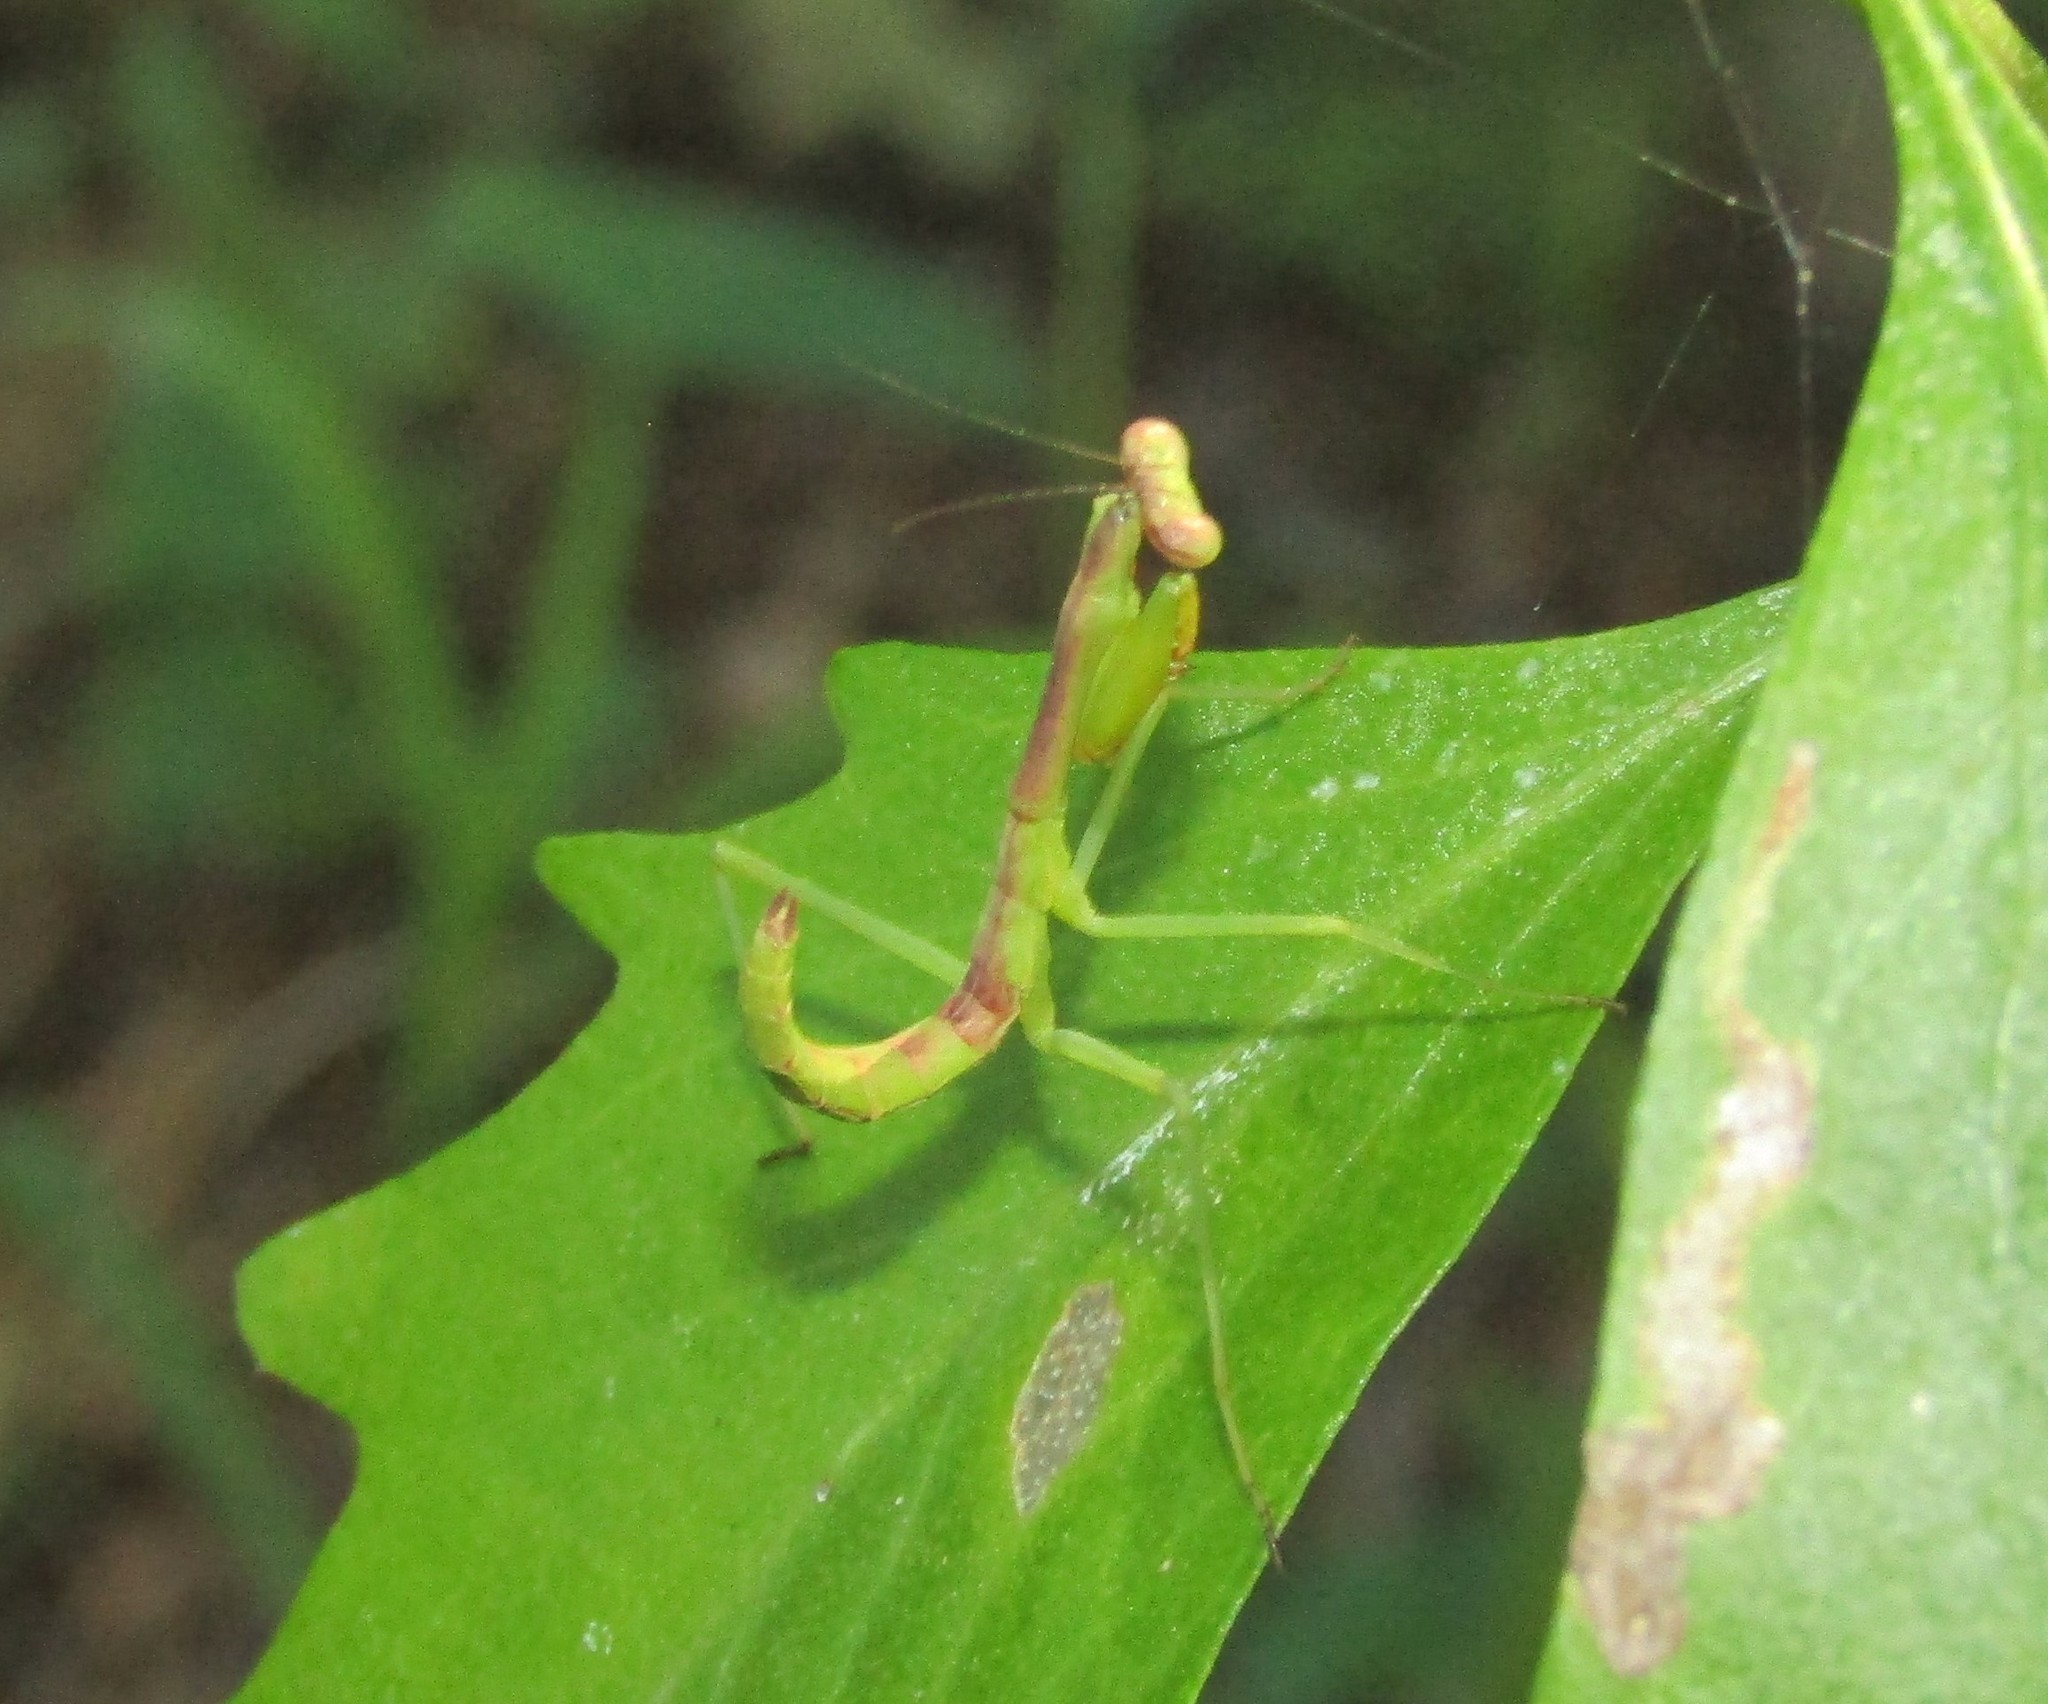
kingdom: Animalia
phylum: Arthropoda
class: Insecta
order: Mantodea
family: Mantidae
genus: Stagmomantis
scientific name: Stagmomantis carolina
